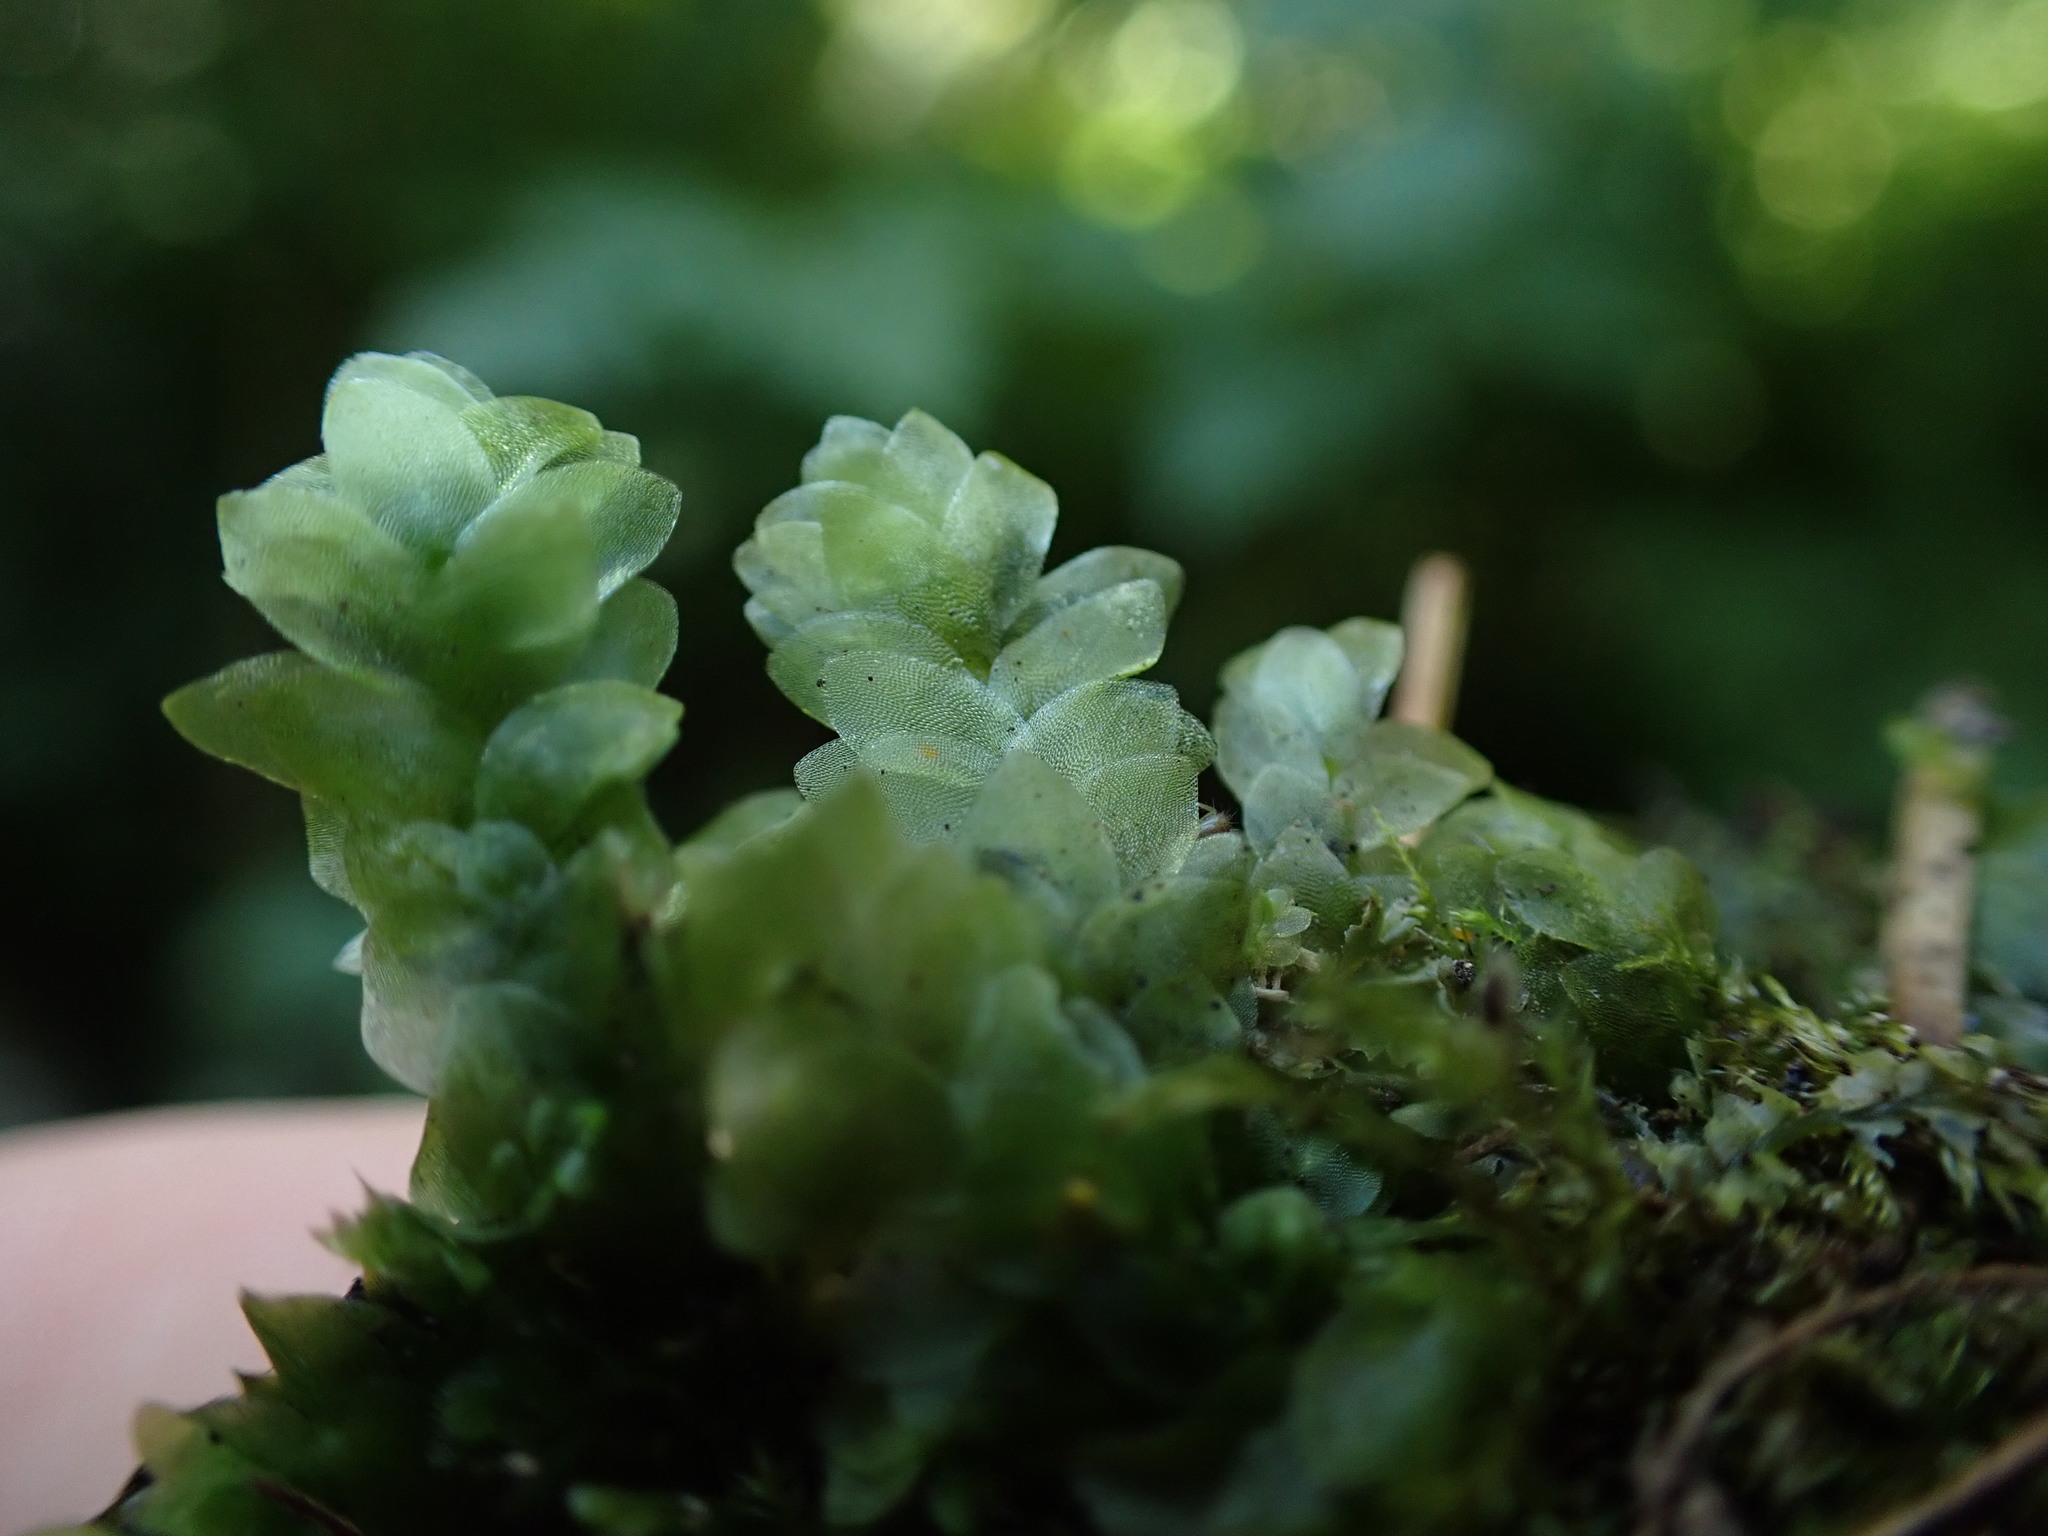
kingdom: Plantae
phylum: Bryophyta
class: Bryopsida
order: Hookeriales
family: Hookeriaceae
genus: Hookeria
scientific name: Hookeria lucens
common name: Shining hookeria
